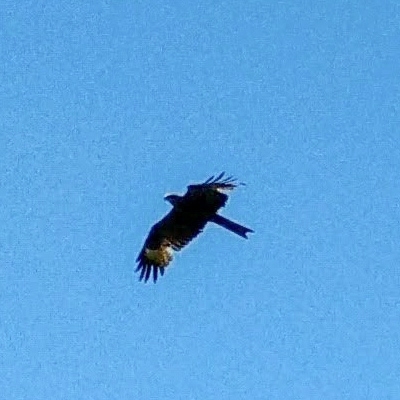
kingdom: Animalia
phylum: Chordata
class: Aves
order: Accipitriformes
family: Accipitridae
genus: Milvus
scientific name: Milvus migrans
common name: Black kite
